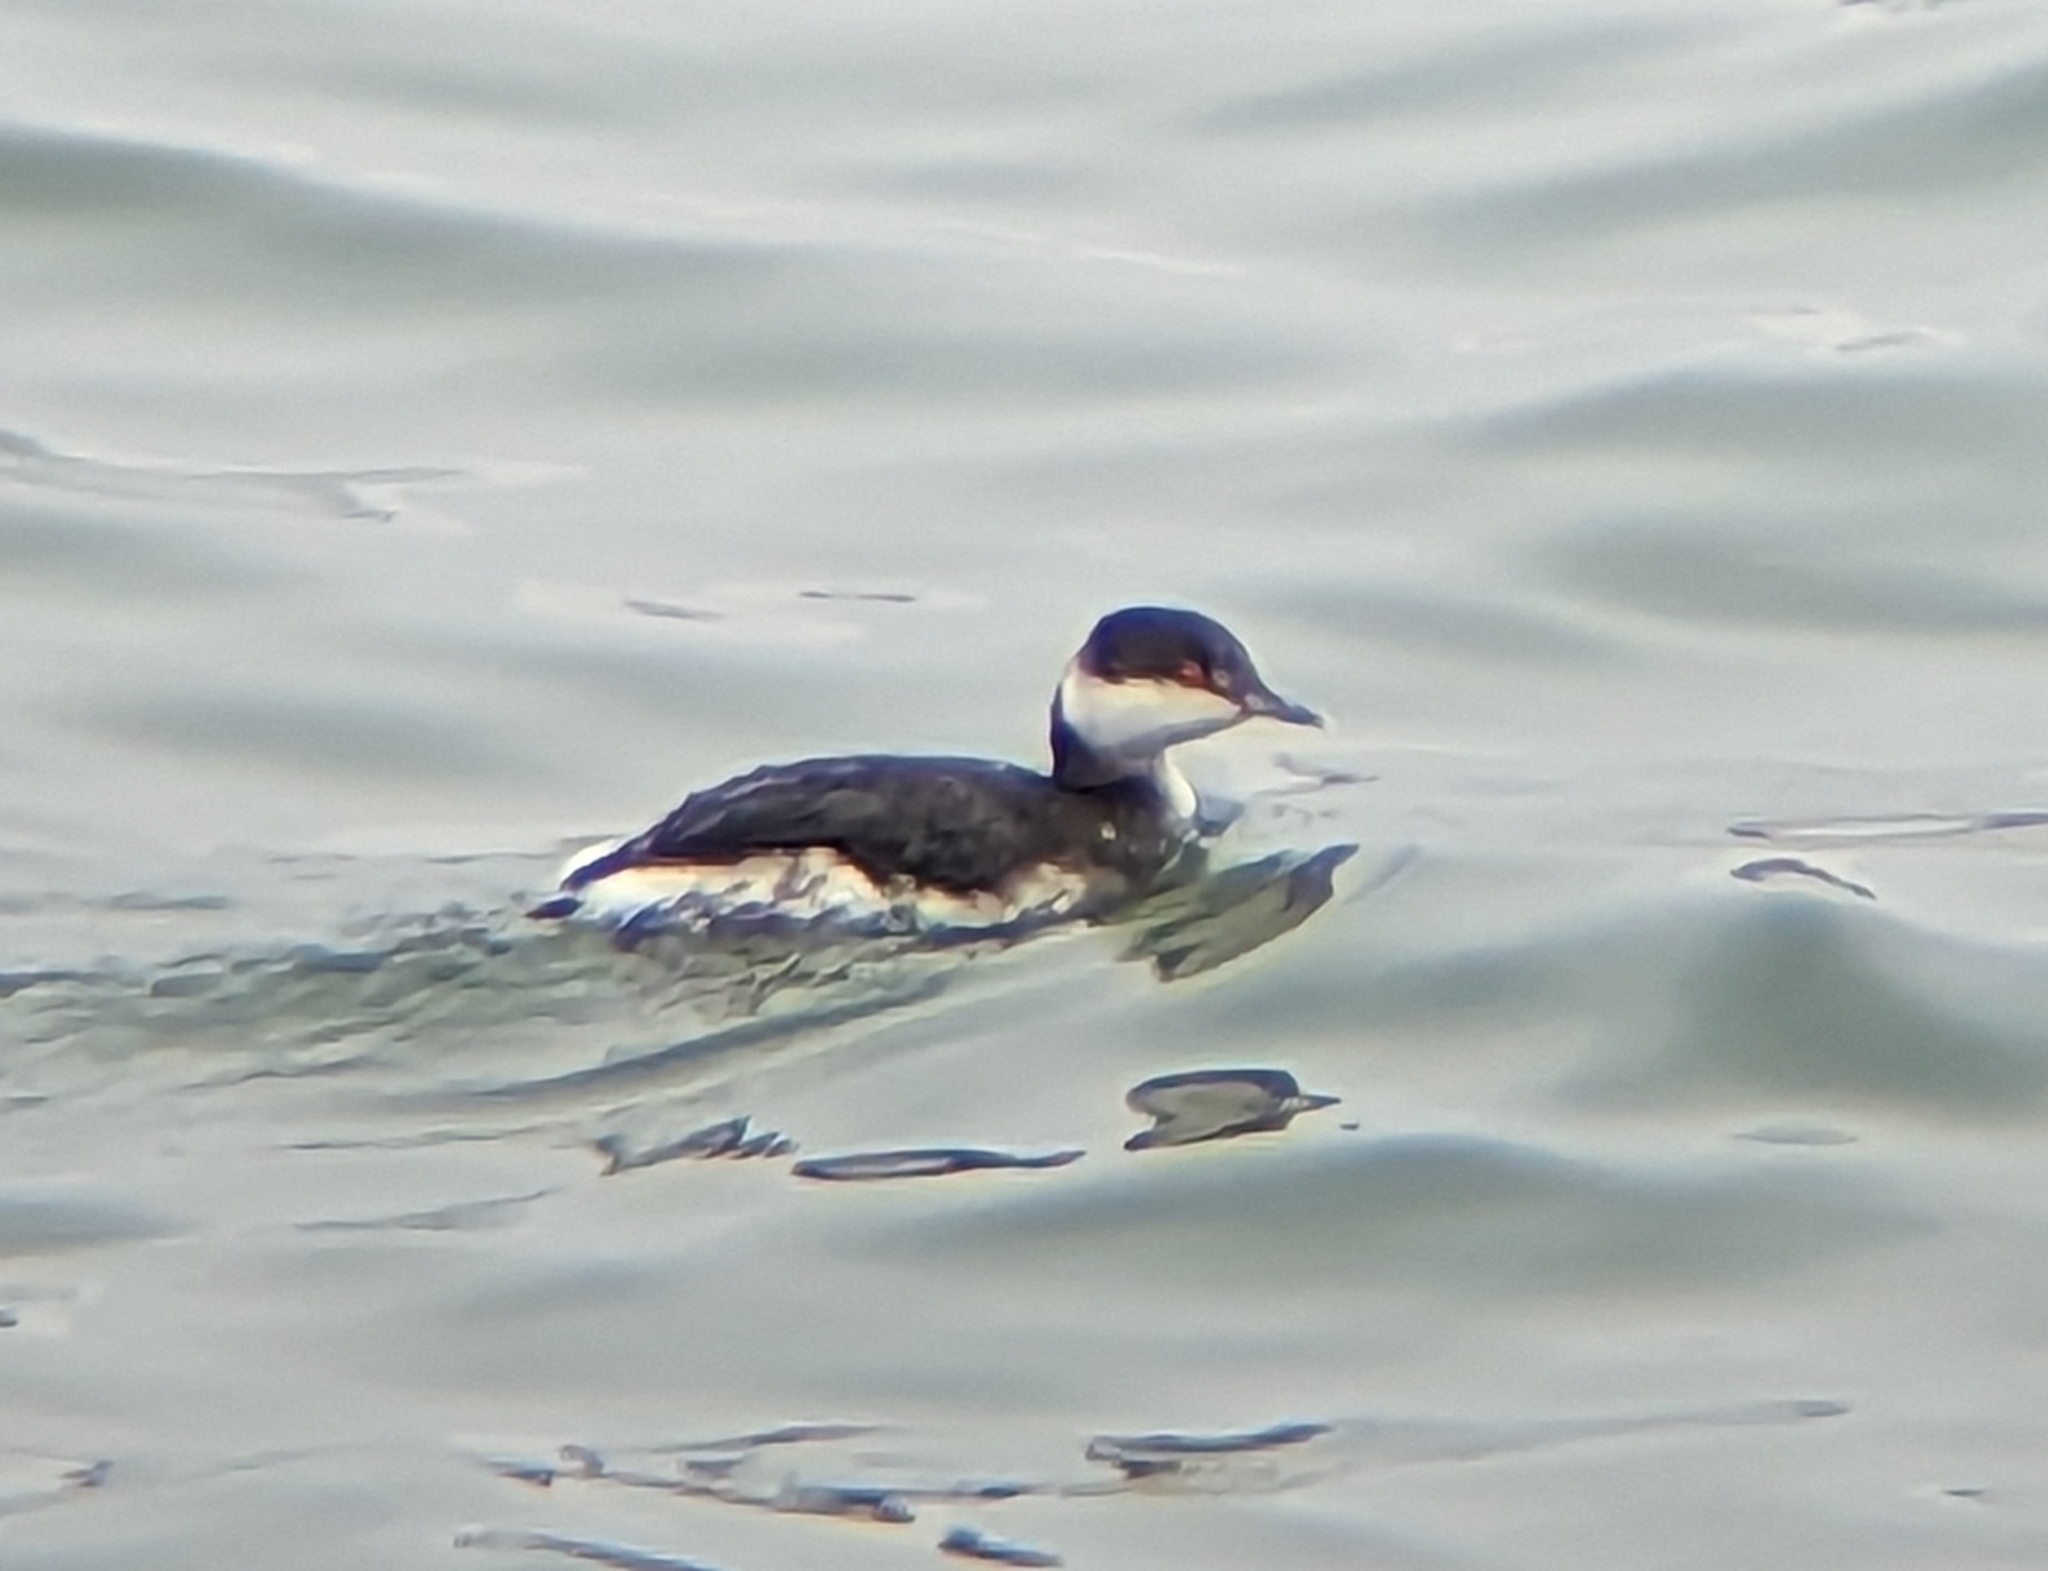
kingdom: Animalia
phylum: Chordata
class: Aves
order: Podicipediformes
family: Podicipedidae
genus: Podiceps
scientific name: Podiceps auritus
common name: Horned grebe
